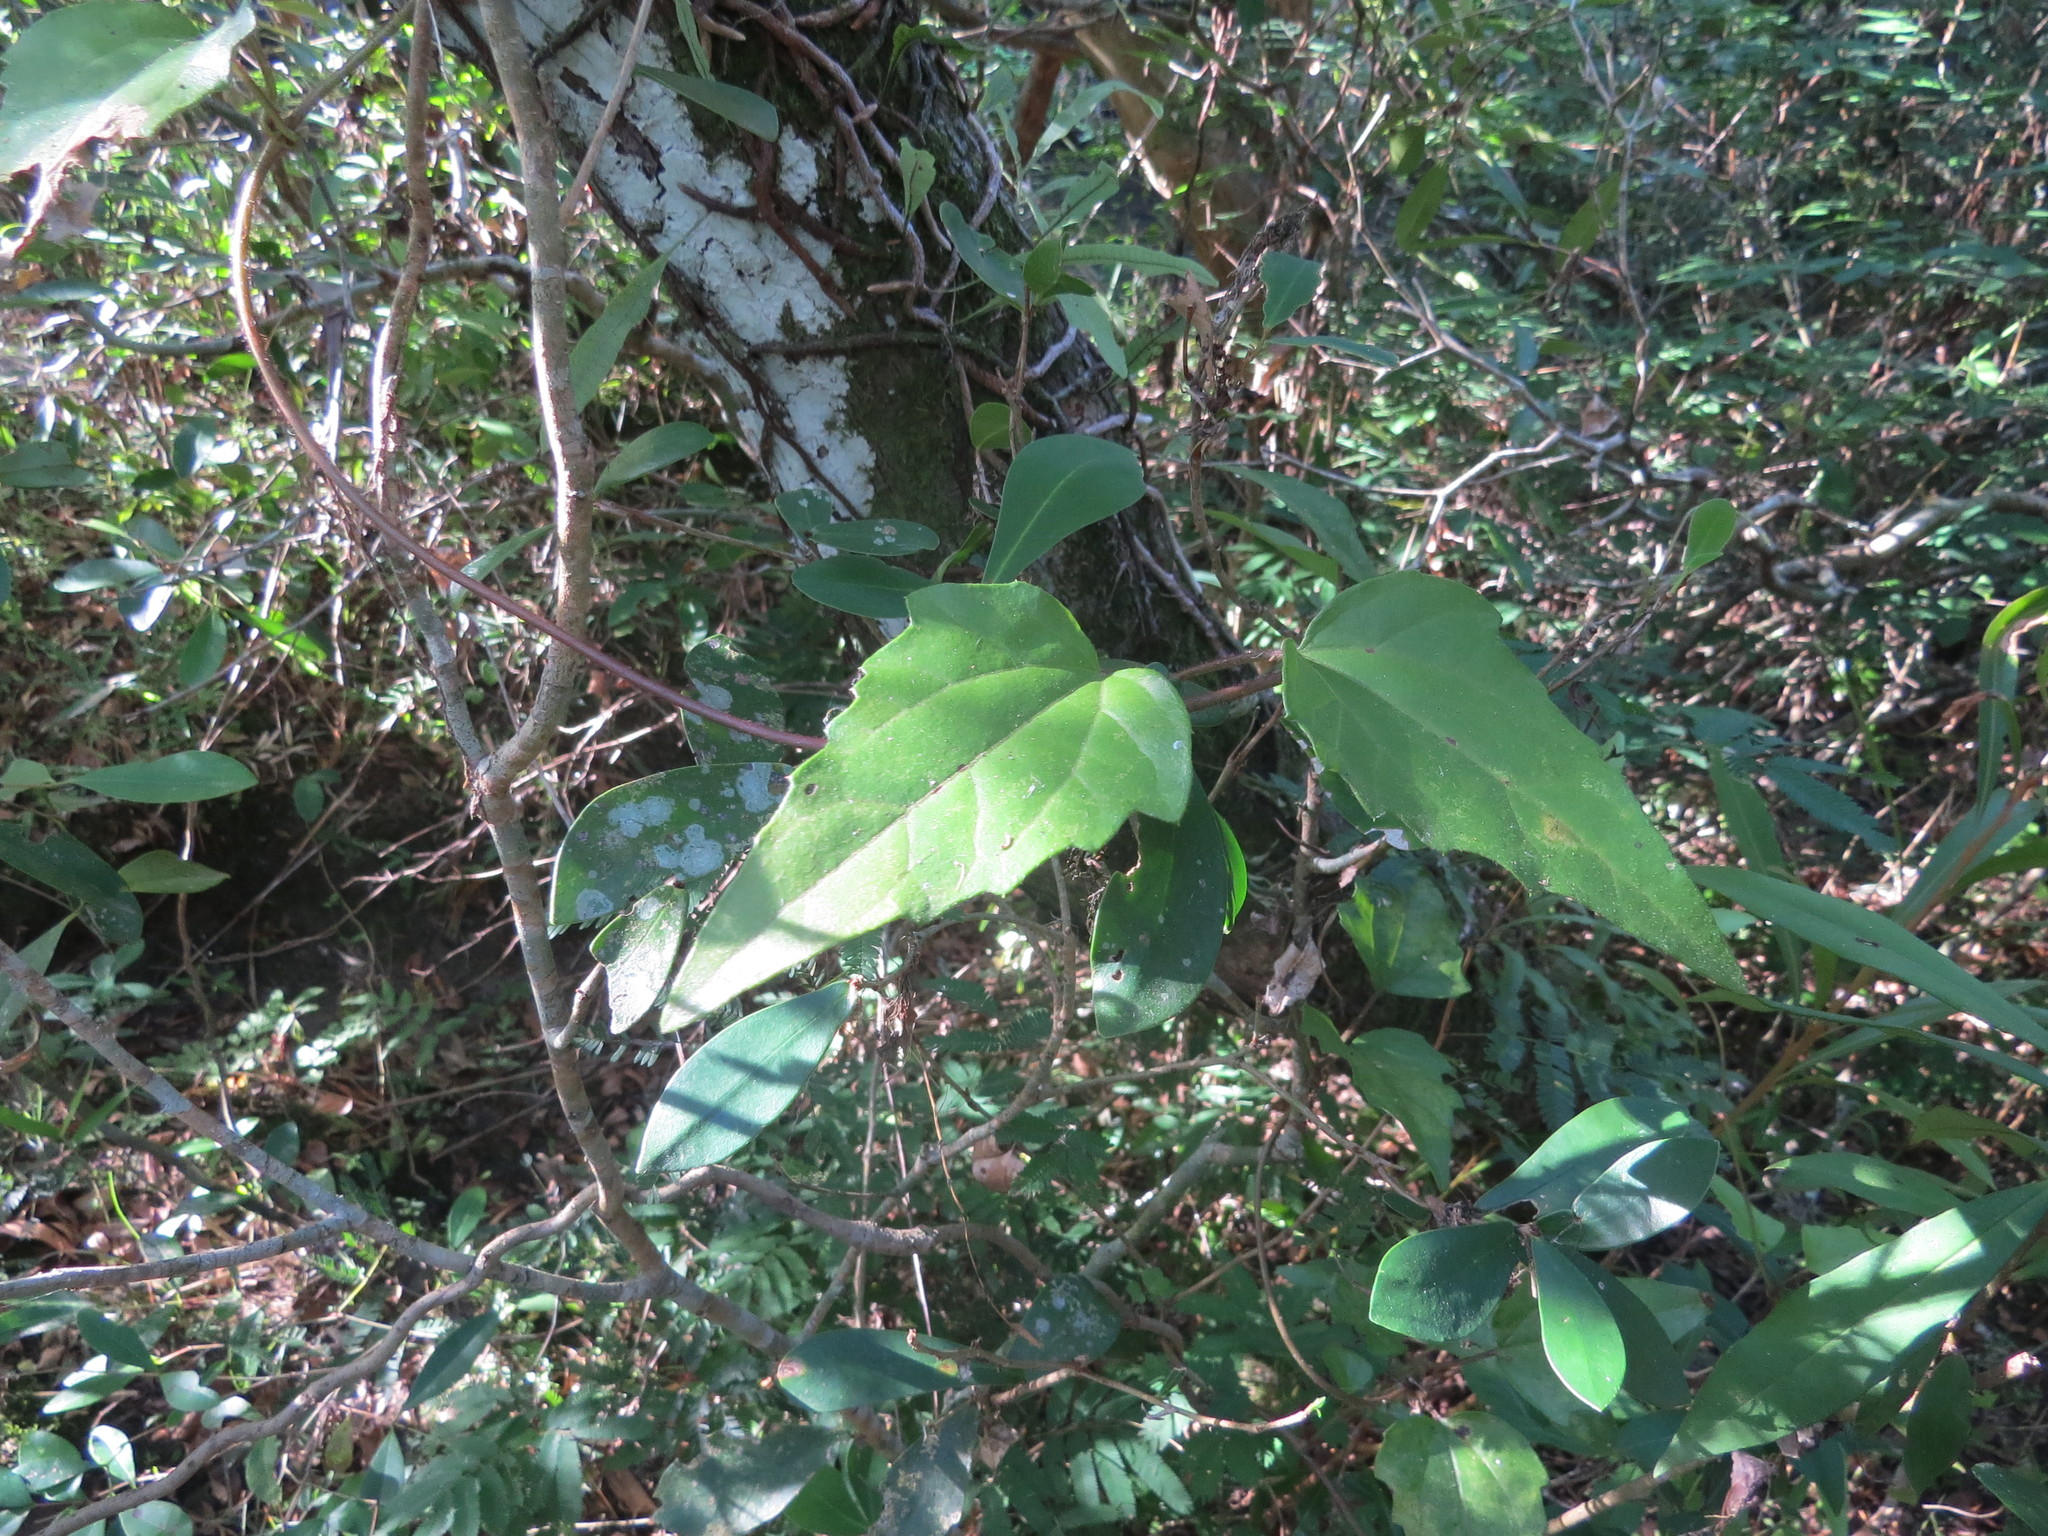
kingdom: Plantae
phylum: Tracheophyta
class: Magnoliopsida
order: Asterales
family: Asteraceae
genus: Mikania
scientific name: Mikania involucrata
